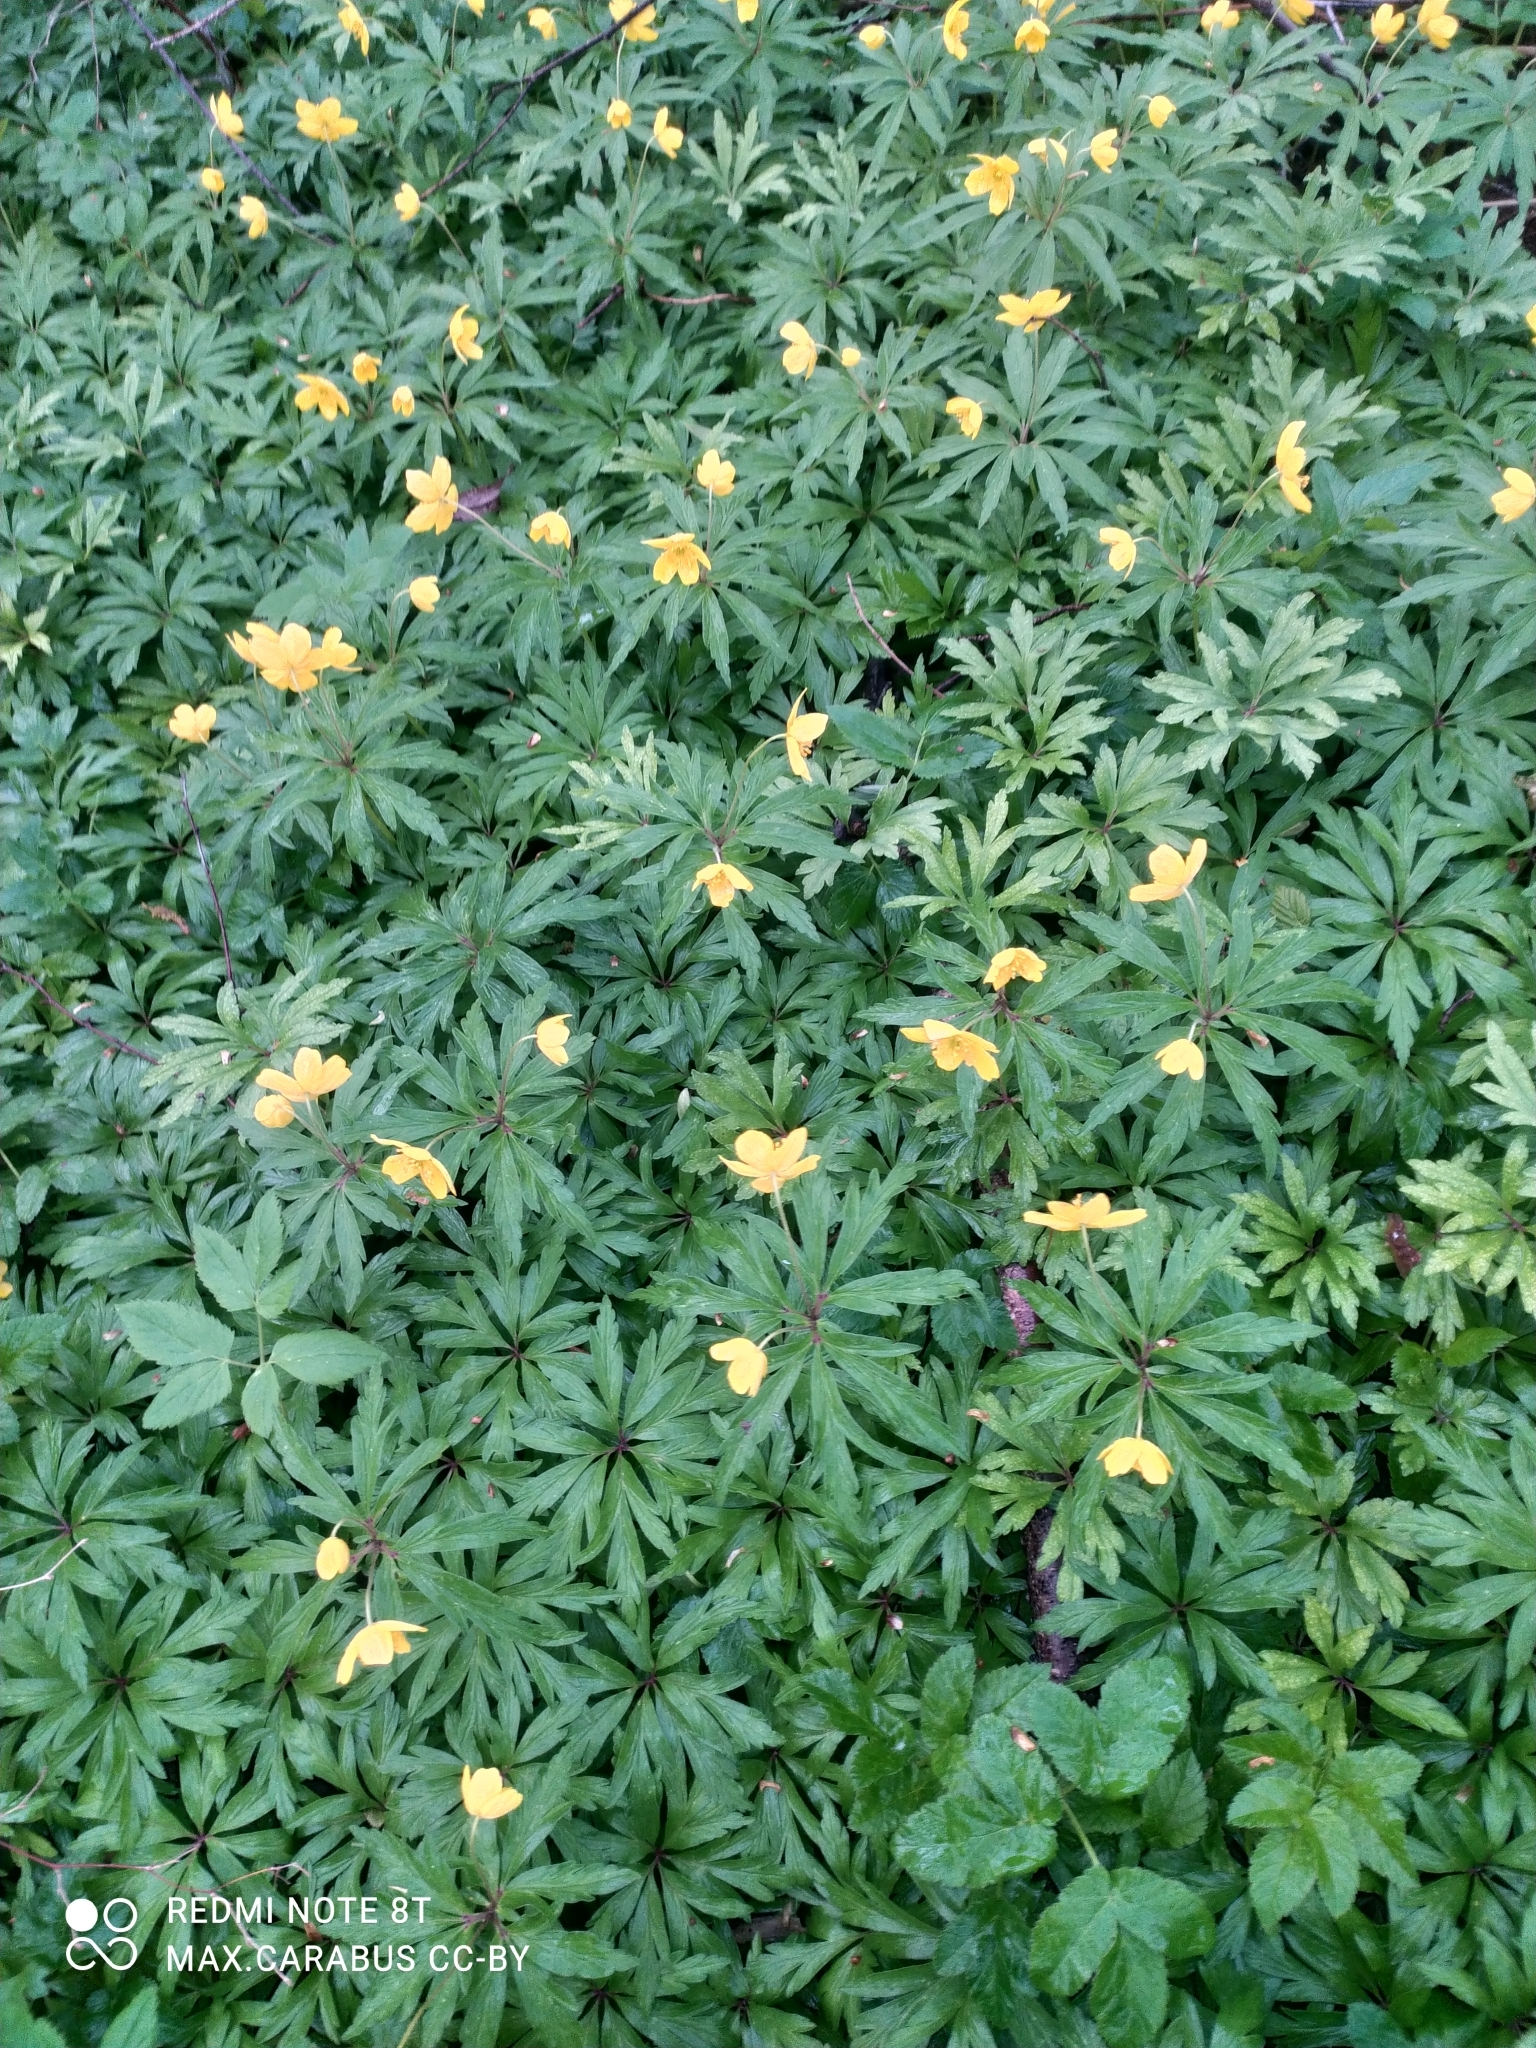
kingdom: Plantae
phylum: Tracheophyta
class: Magnoliopsida
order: Ranunculales
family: Ranunculaceae
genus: Anemone
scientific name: Anemone ranunculoides
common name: Yellow anemone
